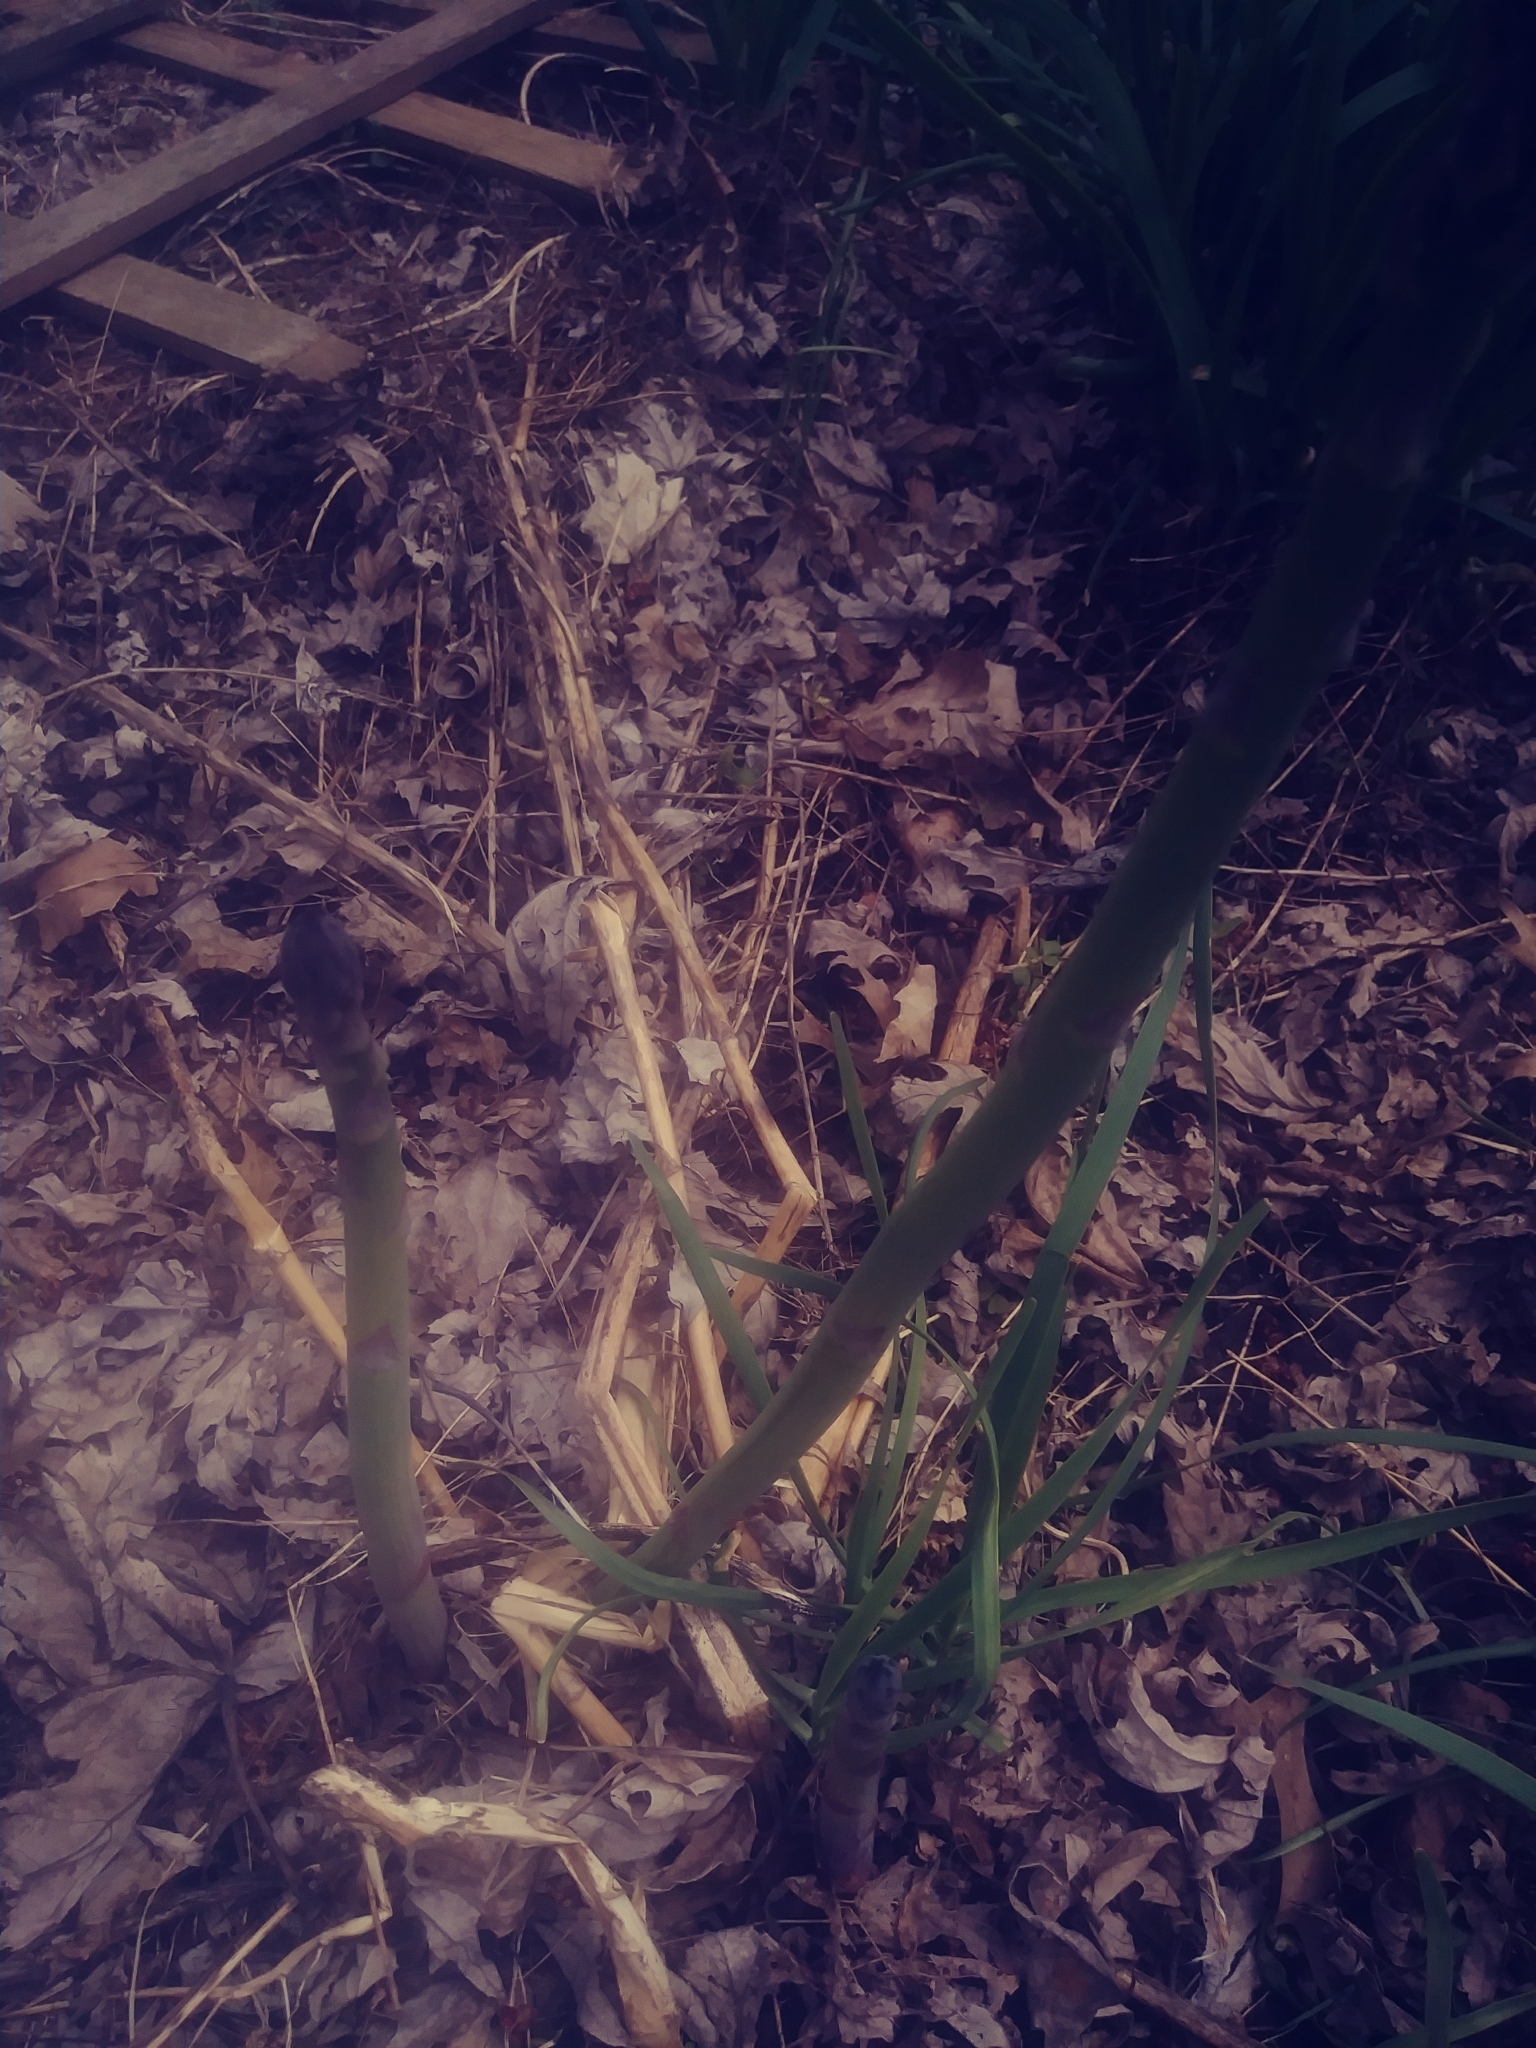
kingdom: Plantae
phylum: Tracheophyta
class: Liliopsida
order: Asparagales
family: Asparagaceae
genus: Asparagus
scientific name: Asparagus officinalis
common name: Garden asparagus
